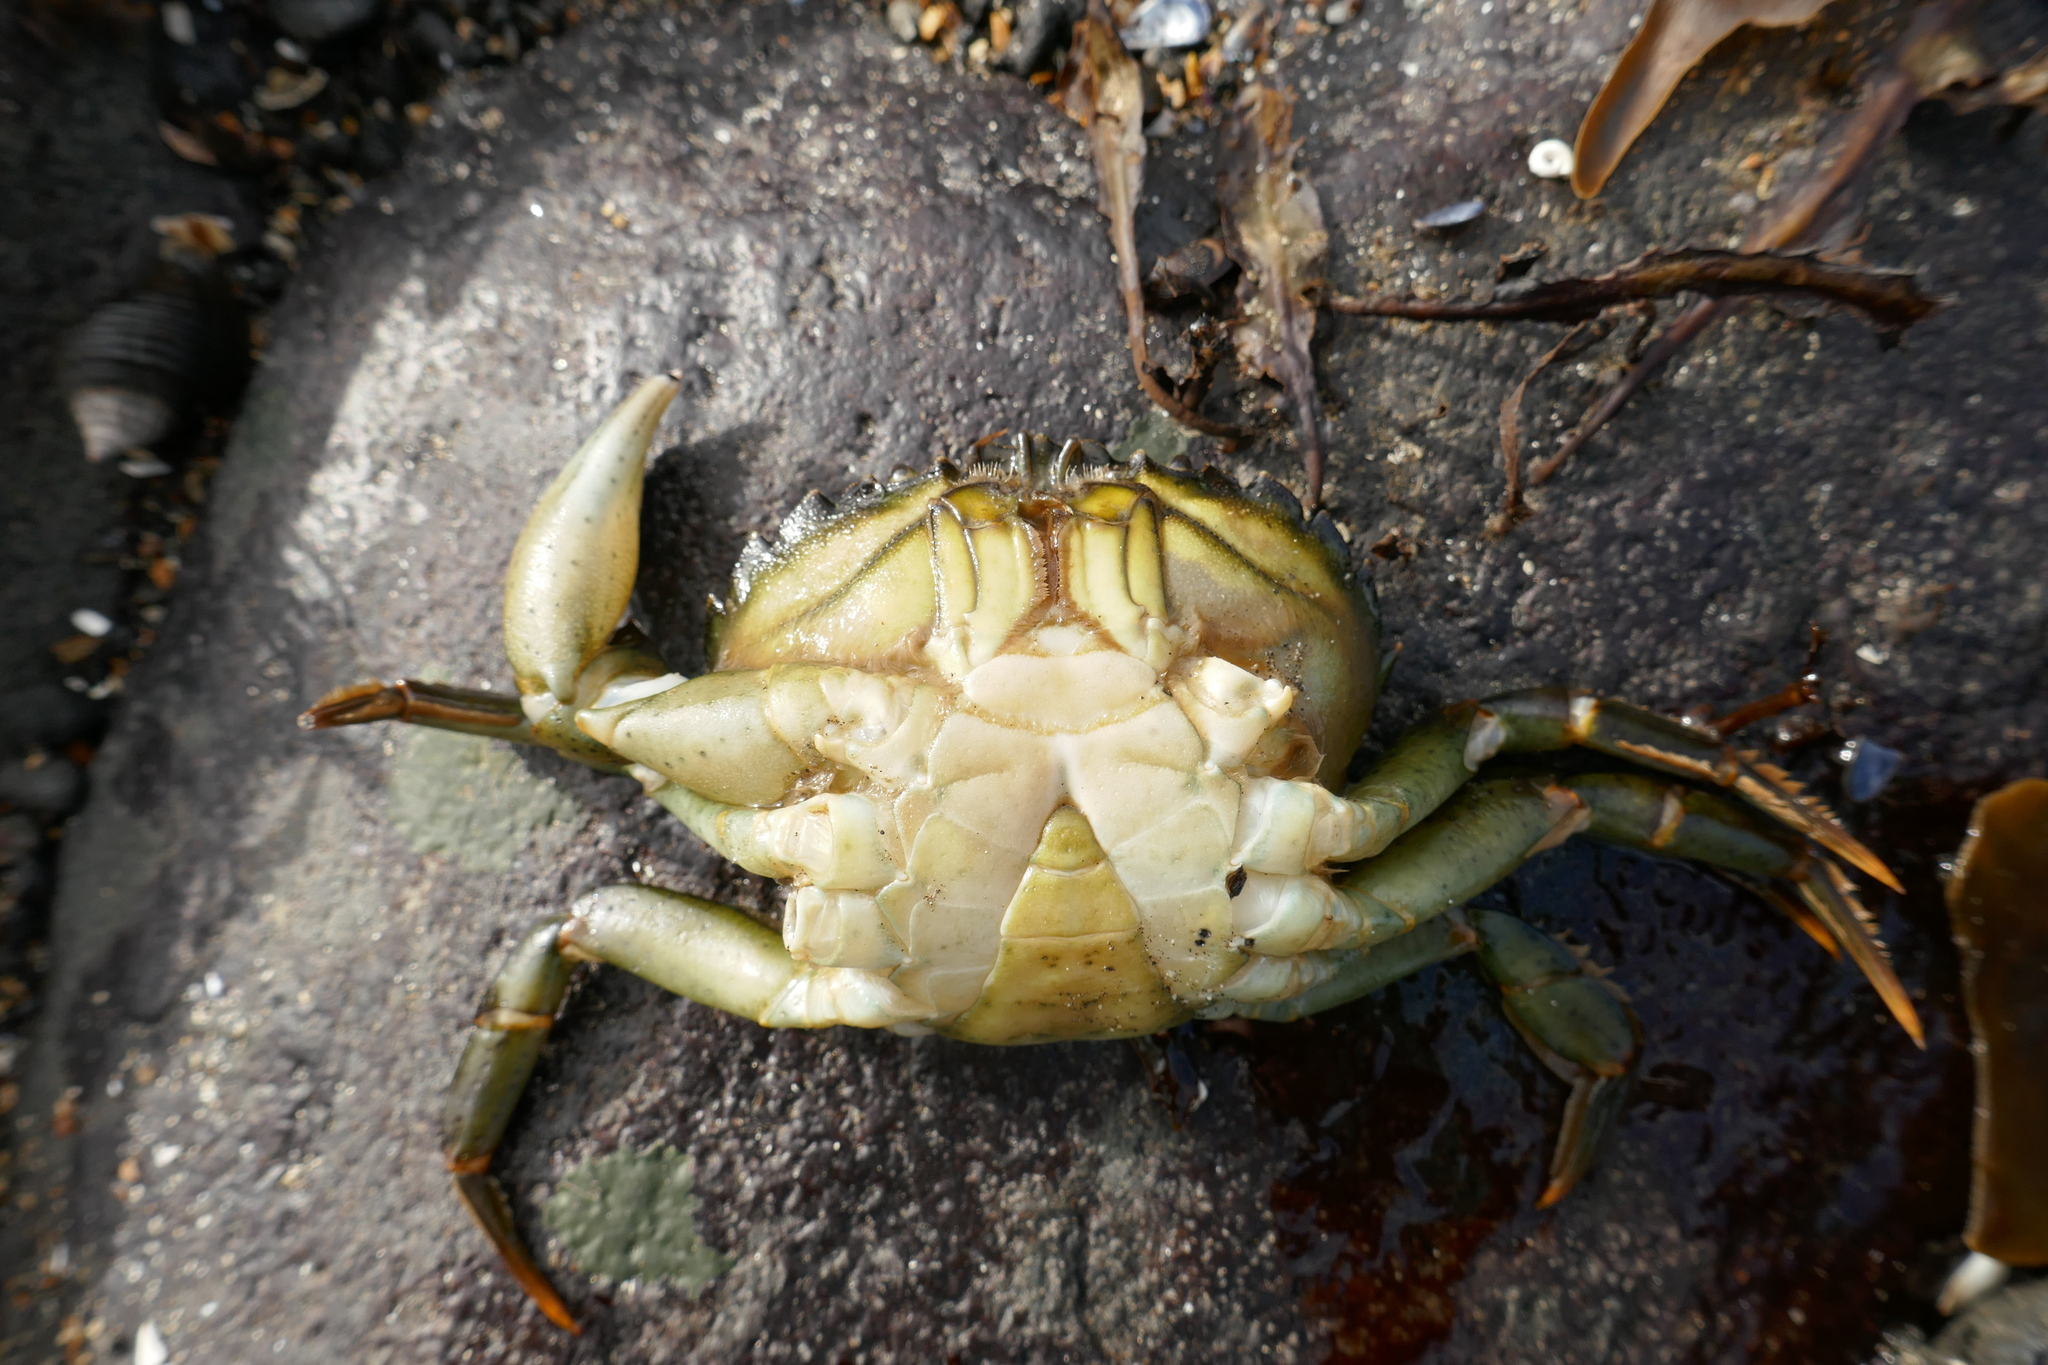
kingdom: Animalia
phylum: Arthropoda
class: Malacostraca
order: Decapoda
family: Carcinidae
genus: Carcinus
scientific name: Carcinus maenas
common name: European green crab
